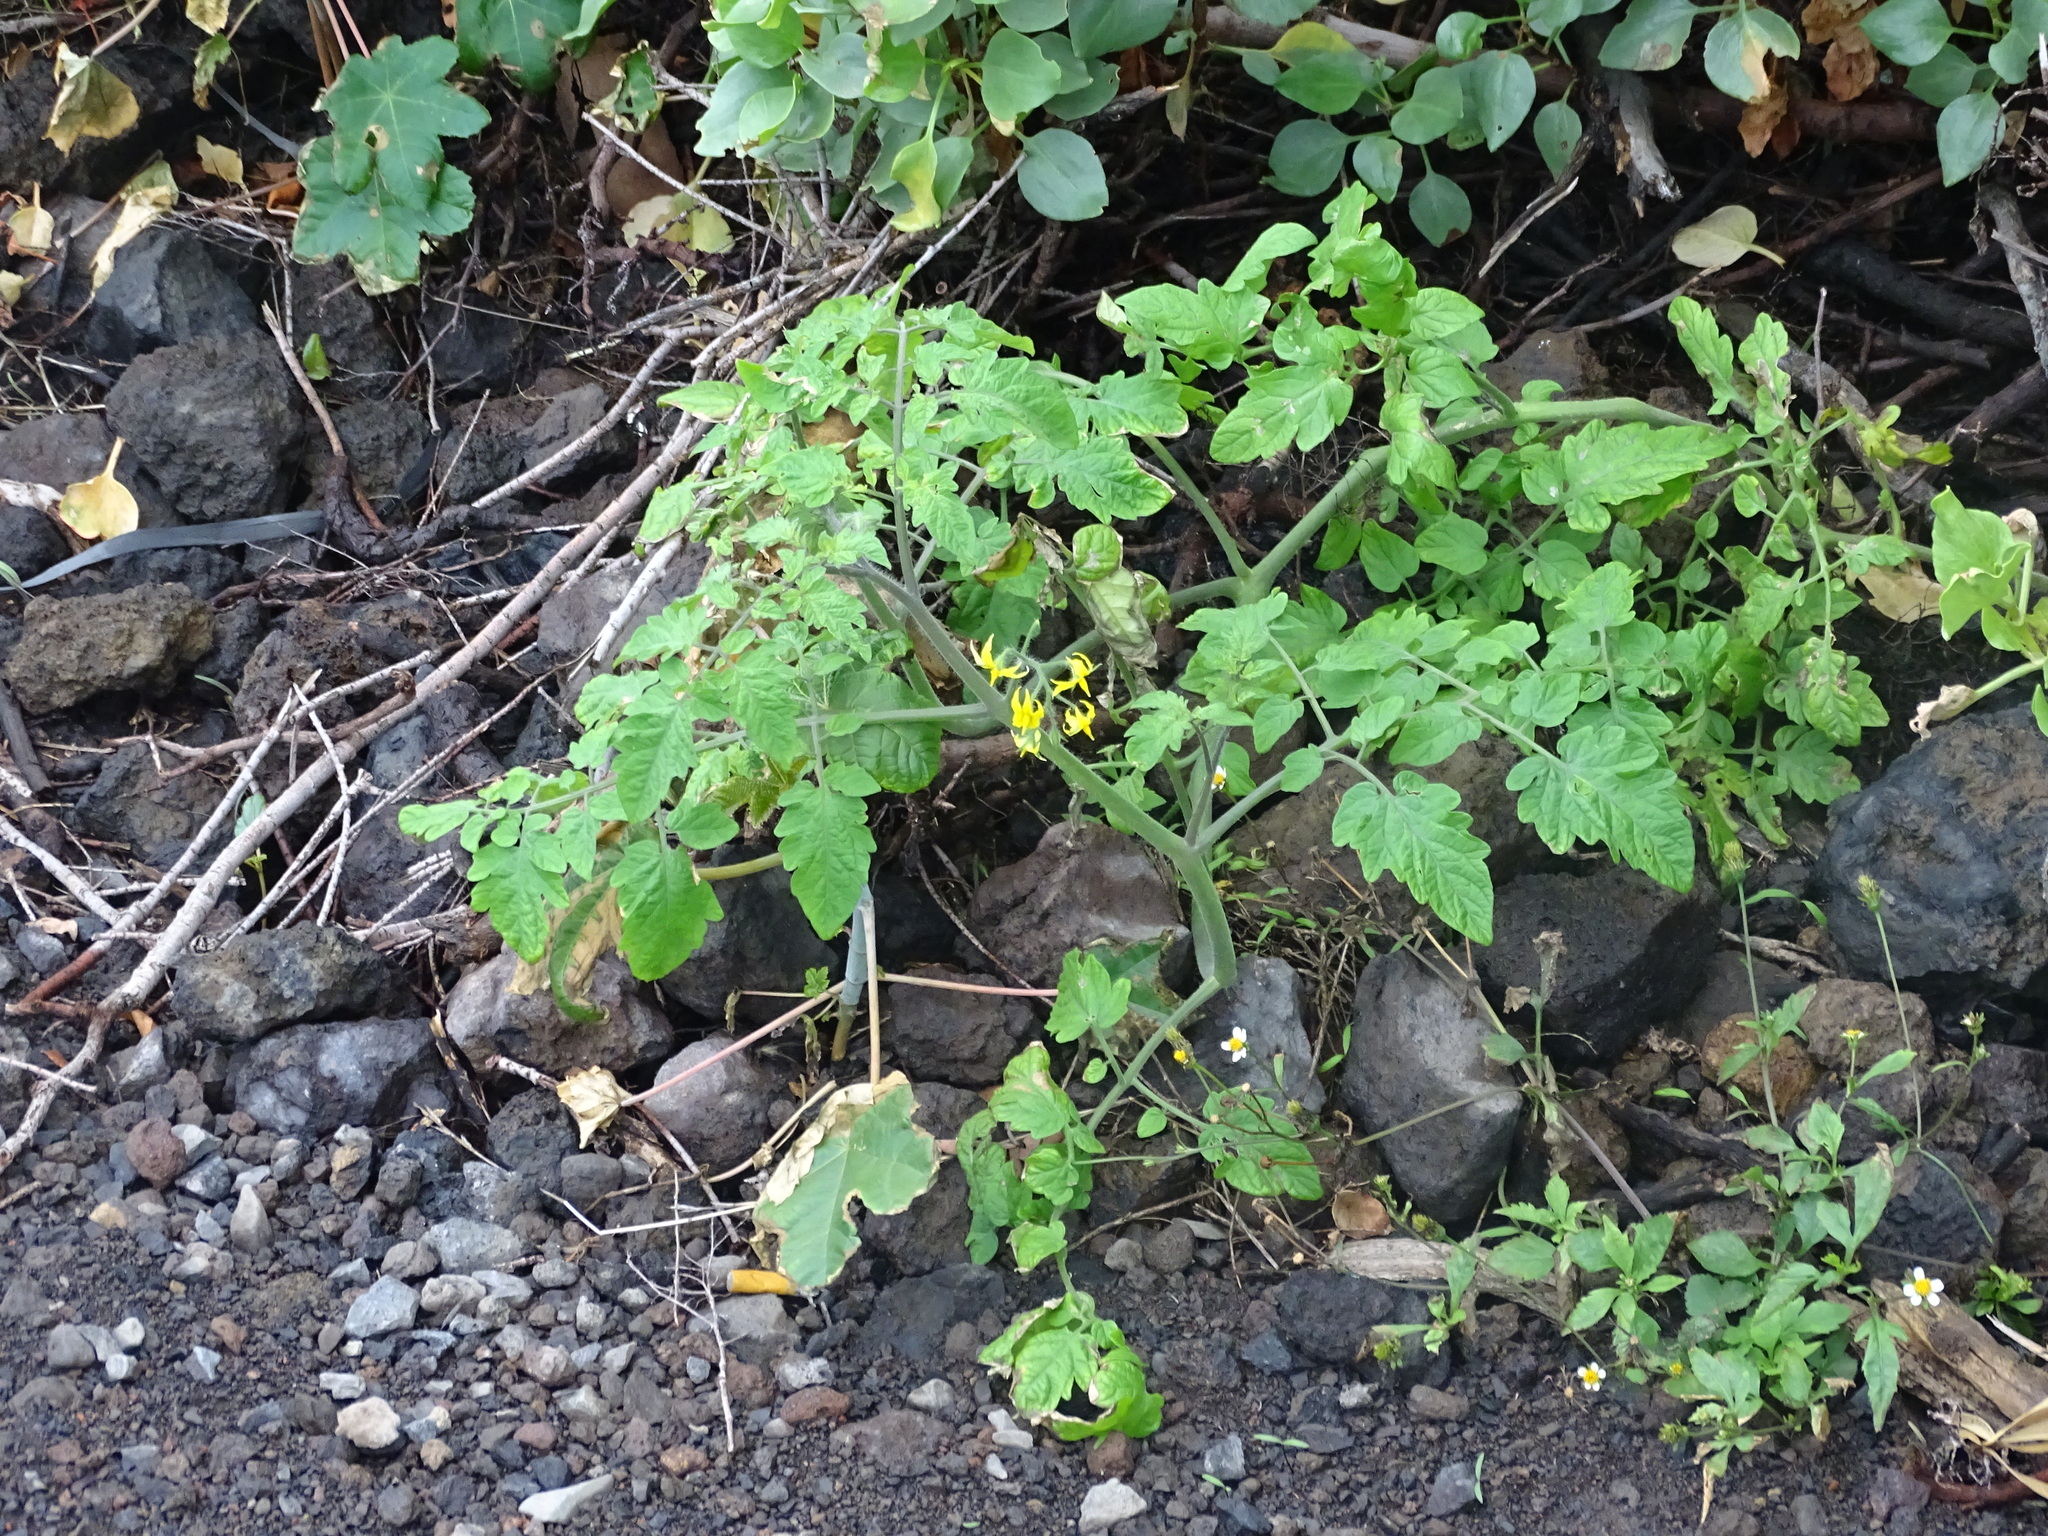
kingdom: Plantae
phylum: Tracheophyta
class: Magnoliopsida
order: Solanales
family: Solanaceae
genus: Solanum
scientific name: Solanum lycopersicum
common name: Garden tomato
